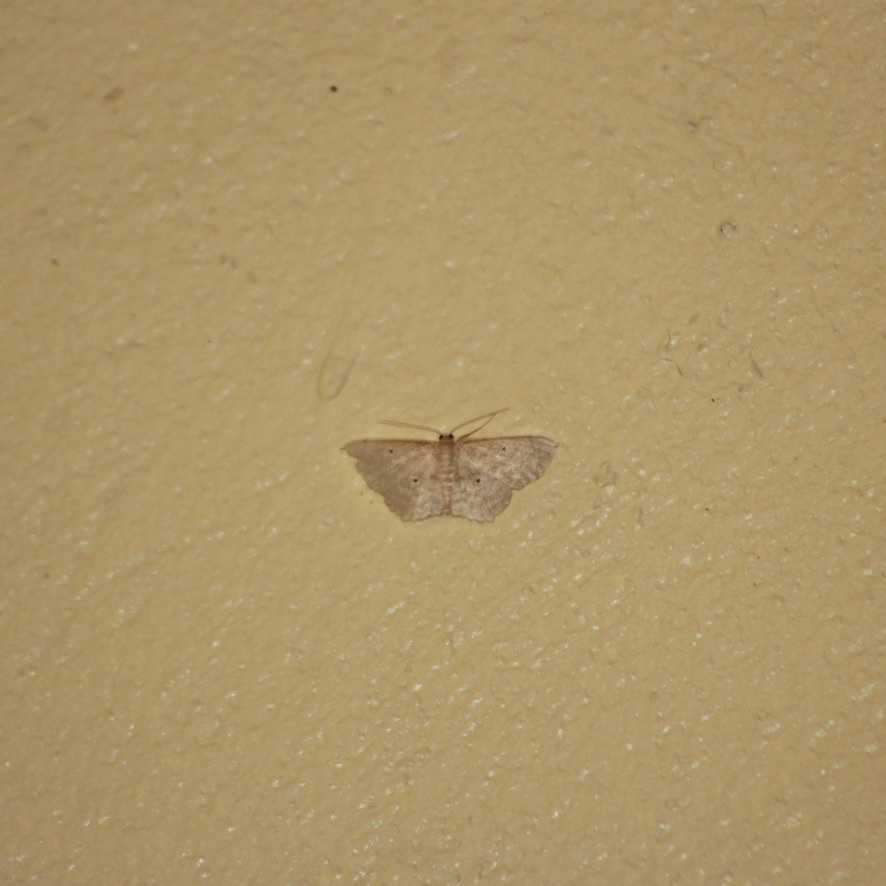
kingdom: Animalia
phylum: Arthropoda
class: Insecta
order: Lepidoptera
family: Geometridae
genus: Scopula
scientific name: Scopula apparitaria
